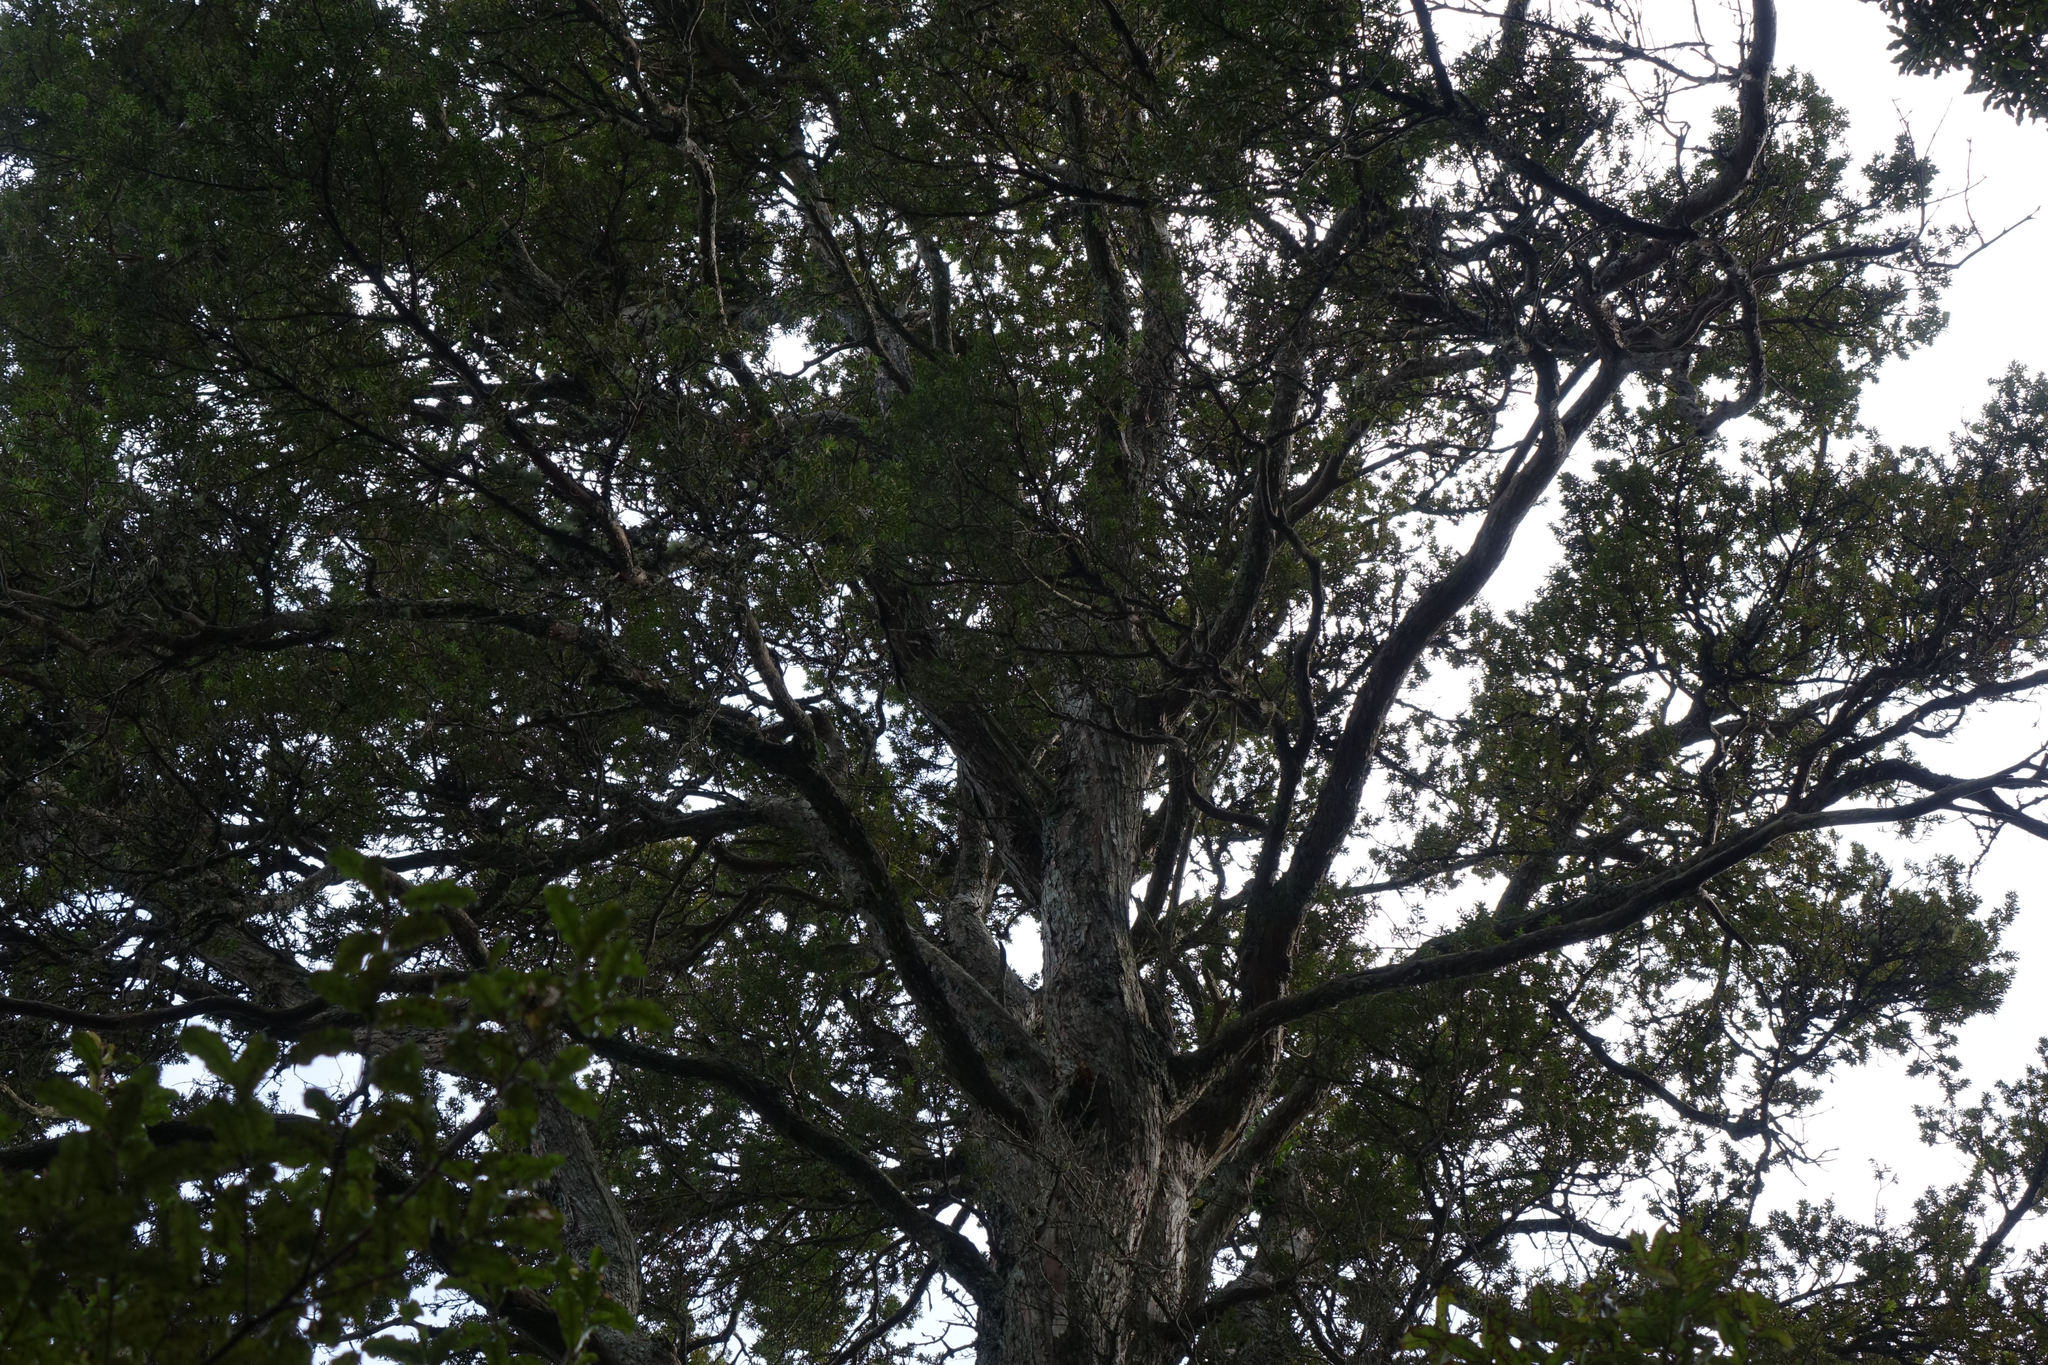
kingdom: Plantae
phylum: Tracheophyta
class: Pinopsida
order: Pinales
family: Podocarpaceae
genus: Podocarpus
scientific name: Podocarpus laetus
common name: Hall's totara
